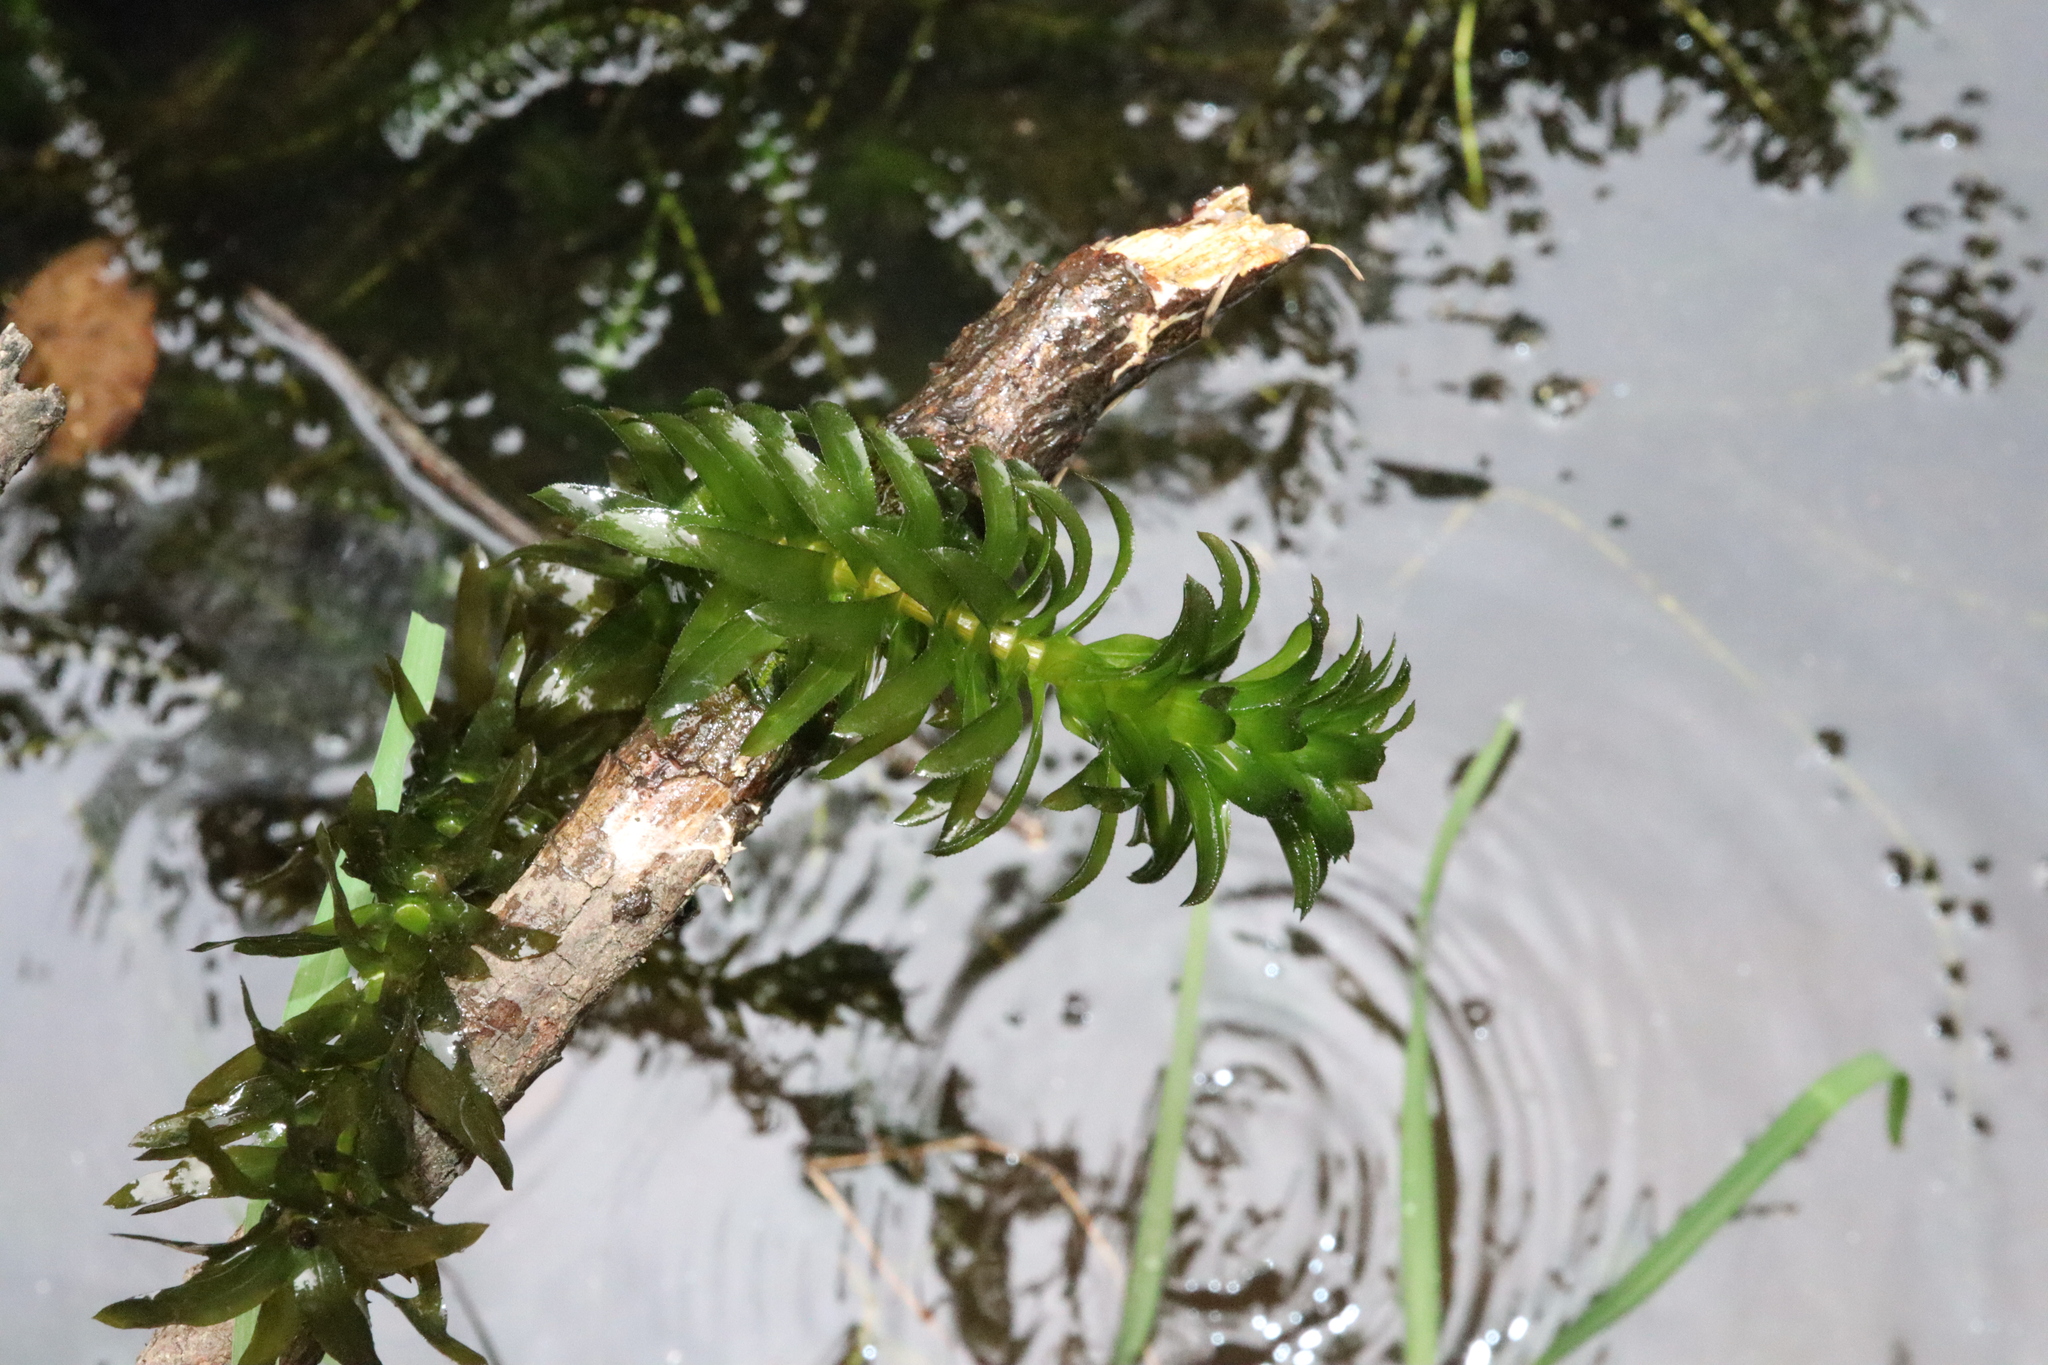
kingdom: Plantae
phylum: Tracheophyta
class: Liliopsida
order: Alismatales
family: Hydrocharitaceae
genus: Elodea
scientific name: Elodea densa
